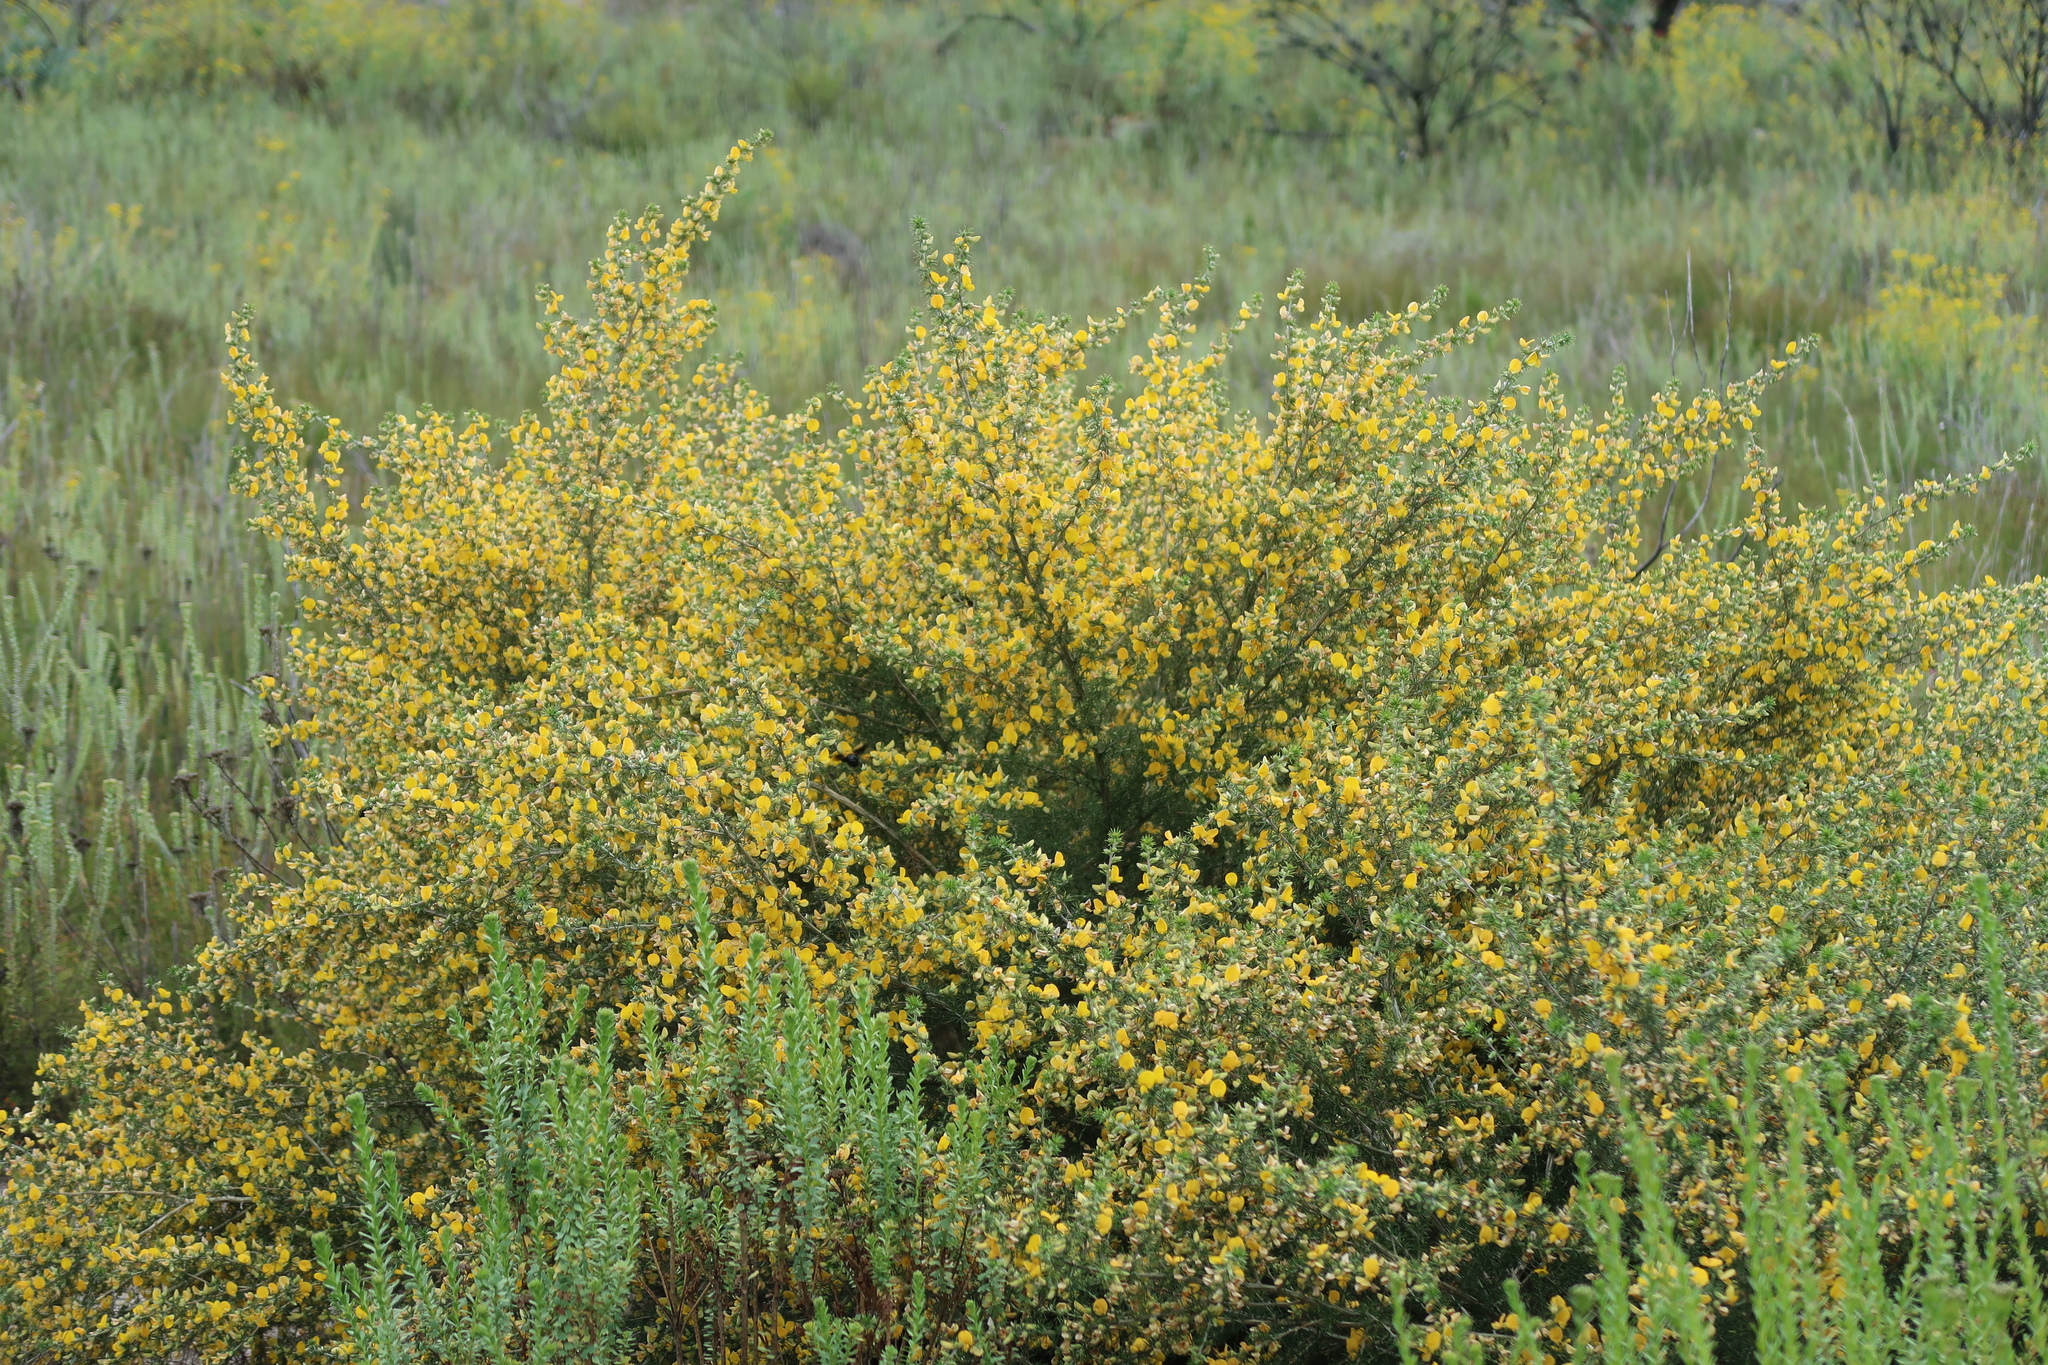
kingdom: Plantae
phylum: Tracheophyta
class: Magnoliopsida
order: Fabales
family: Fabaceae
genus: Aspalathus
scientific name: Aspalathus hirta
